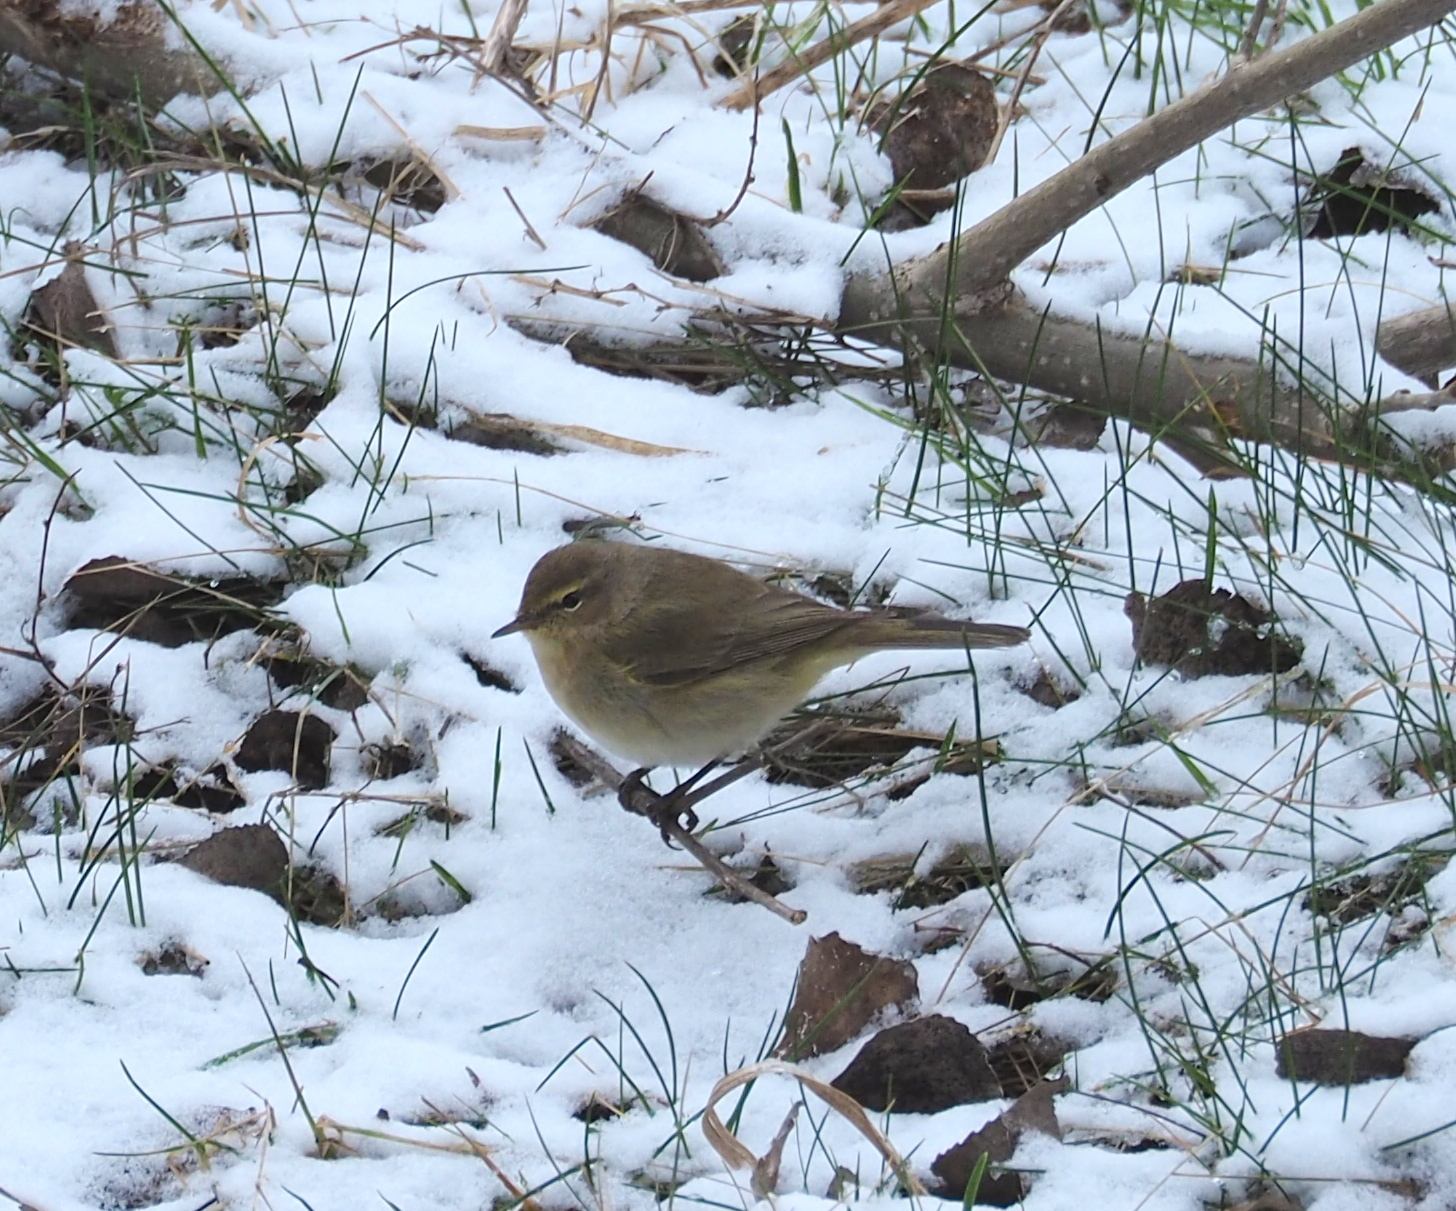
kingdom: Animalia
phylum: Chordata
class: Aves
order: Passeriformes
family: Phylloscopidae
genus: Phylloscopus
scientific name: Phylloscopus collybita
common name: Common chiffchaff
